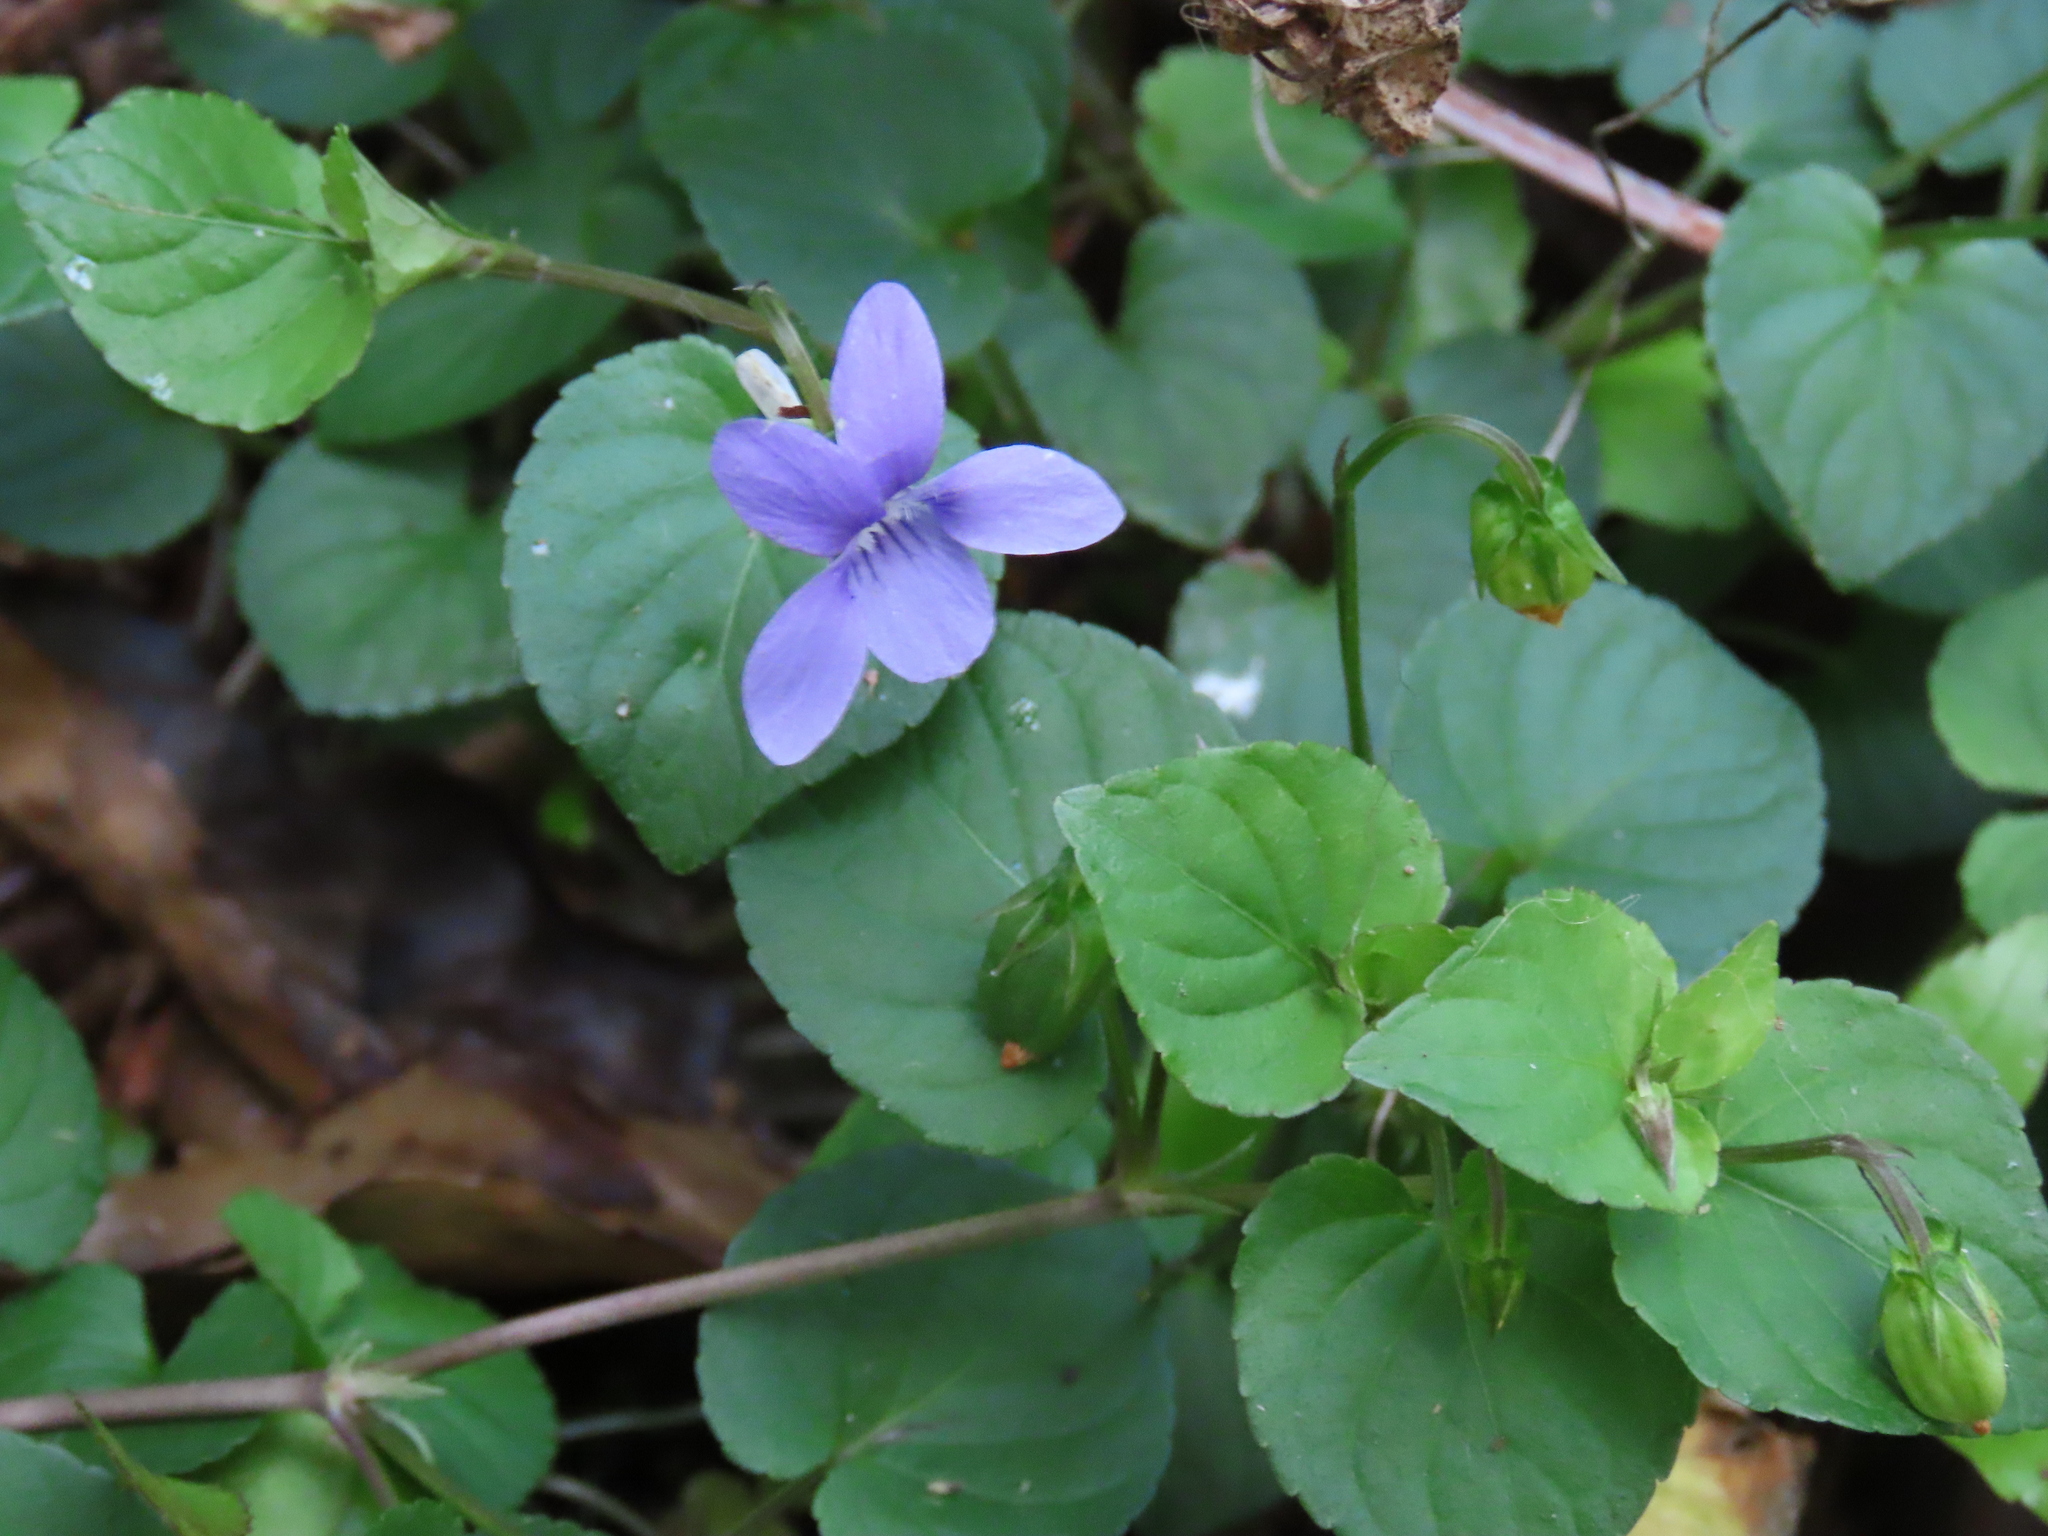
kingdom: Plantae
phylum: Tracheophyta
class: Magnoliopsida
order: Malpighiales
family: Violaceae
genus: Viola
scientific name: Viola riviniana
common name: Common dog-violet
